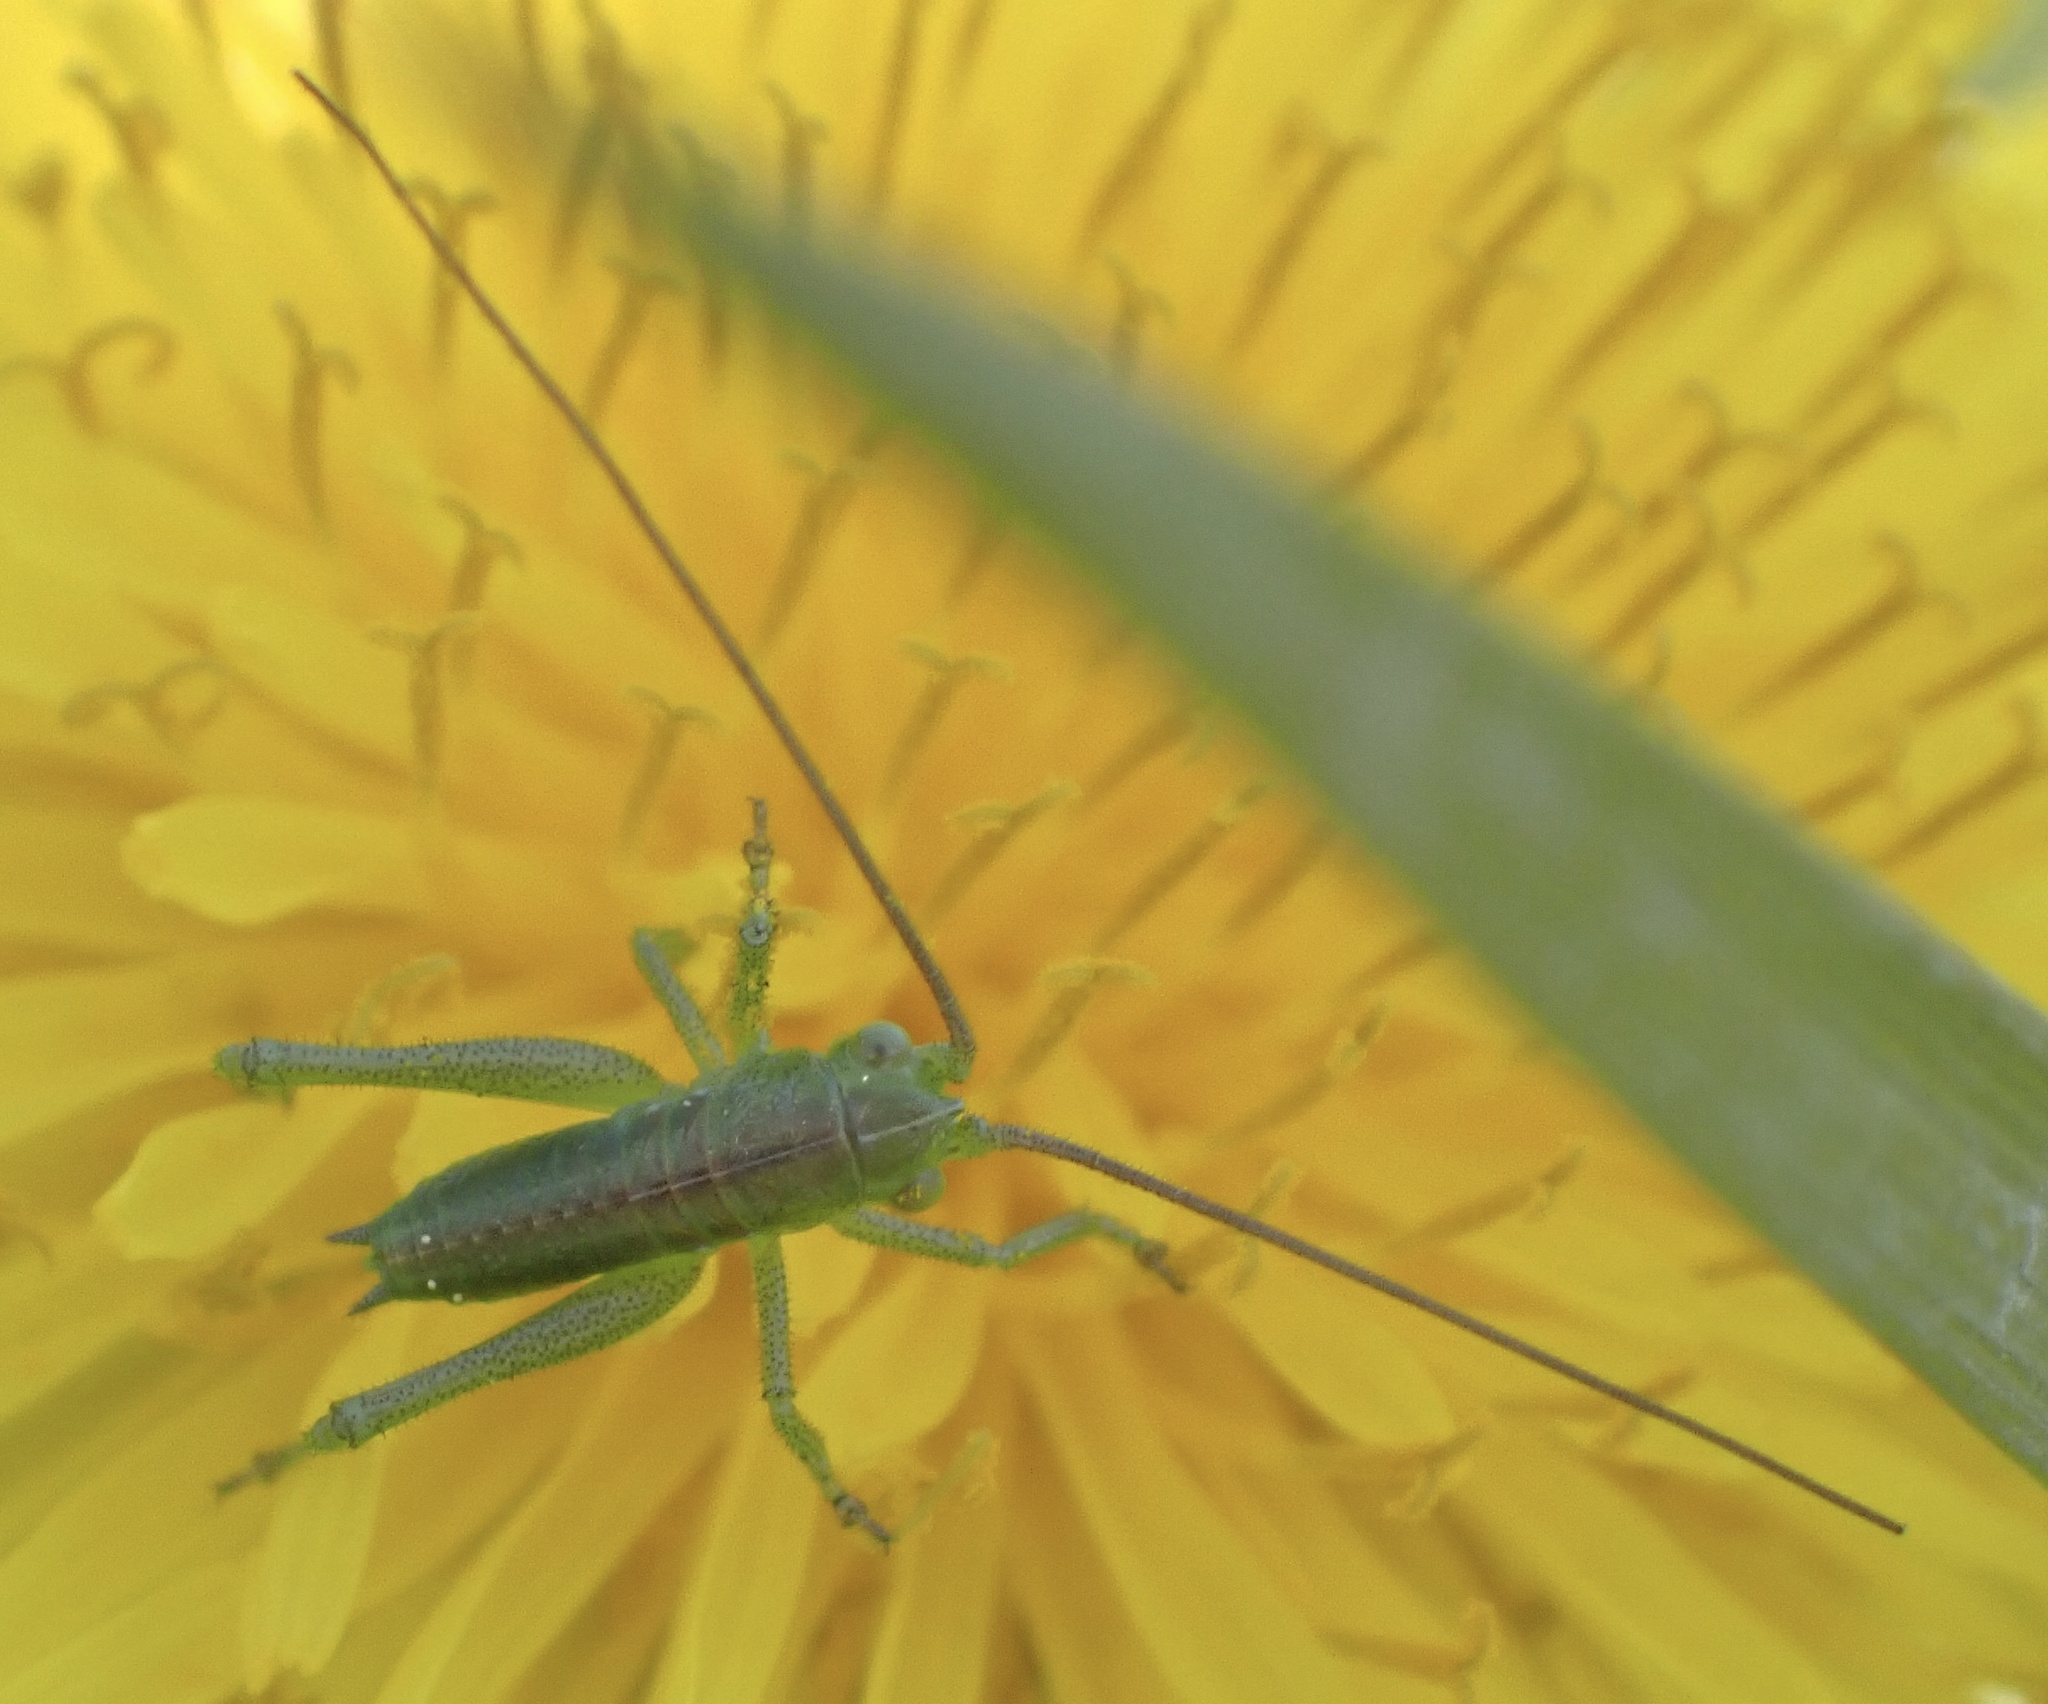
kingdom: Animalia
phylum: Arthropoda
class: Insecta
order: Orthoptera
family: Tettigoniidae
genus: Tettigonia
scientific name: Tettigonia viridissima
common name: Great green bush-cricket
